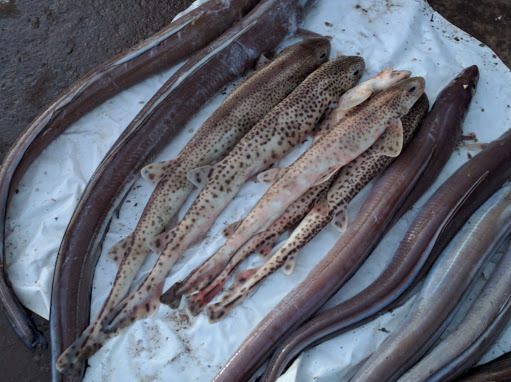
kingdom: Animalia
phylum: Chordata
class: Elasmobranchii
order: Carcharhiniformes
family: Scyliorhinidae
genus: Scyliorhinus
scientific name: Scyliorhinus canicula
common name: Lesser spotted dogfish
